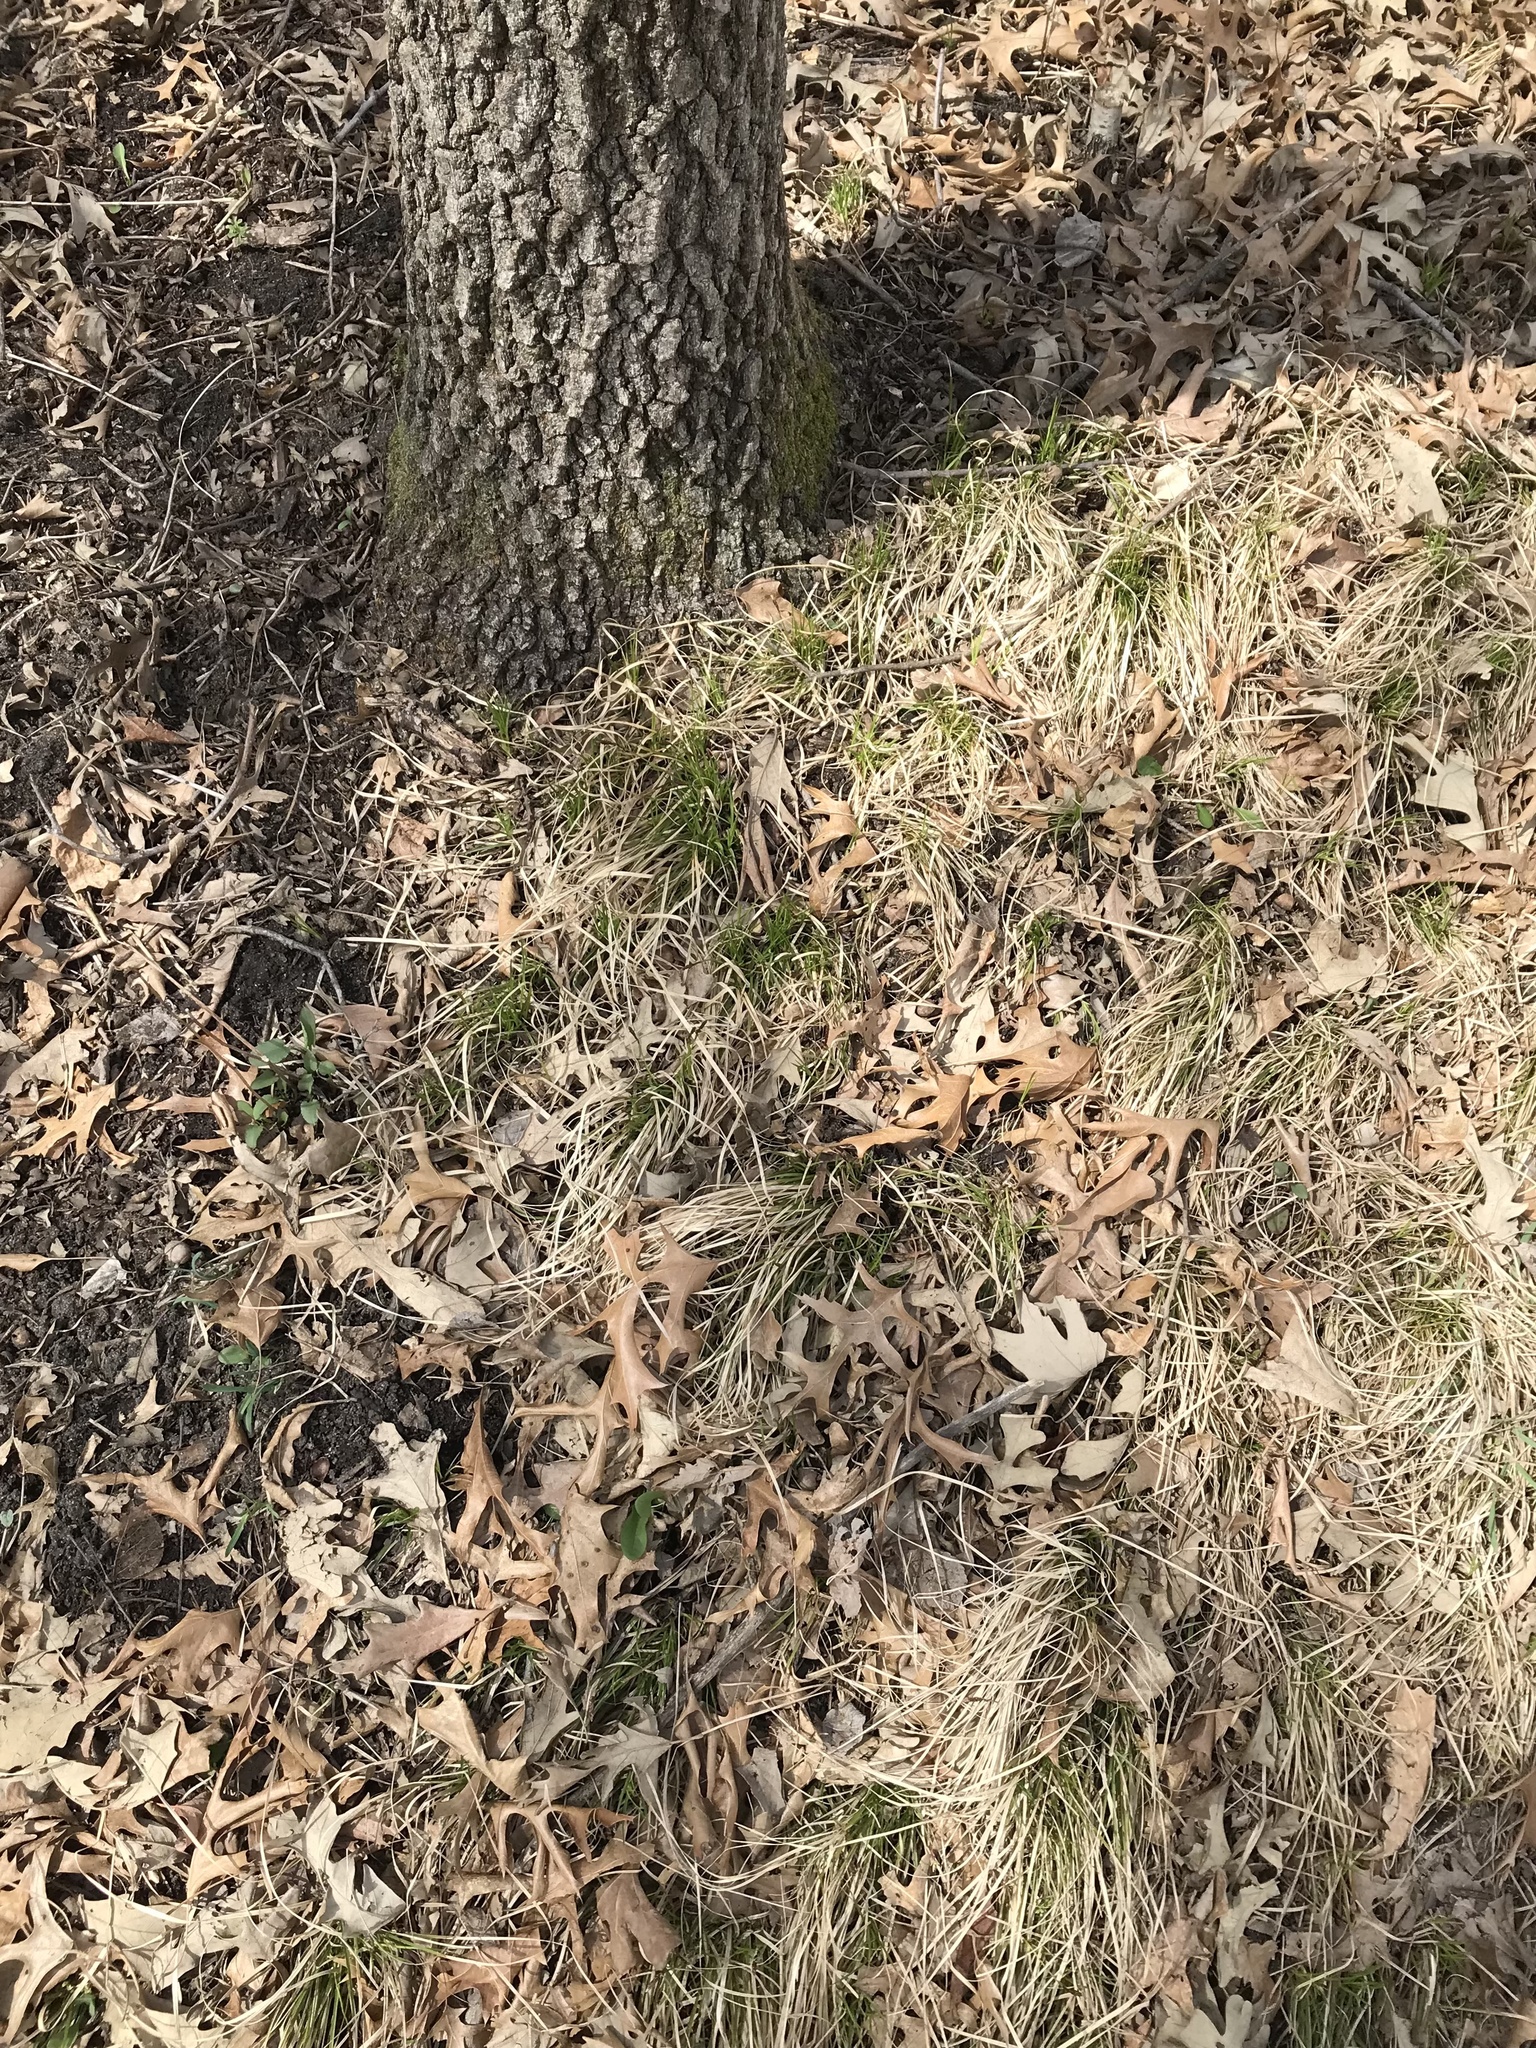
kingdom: Plantae
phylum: Tracheophyta
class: Liliopsida
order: Poales
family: Cyperaceae
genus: Carex
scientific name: Carex pensylvanica
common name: Common oak sedge
